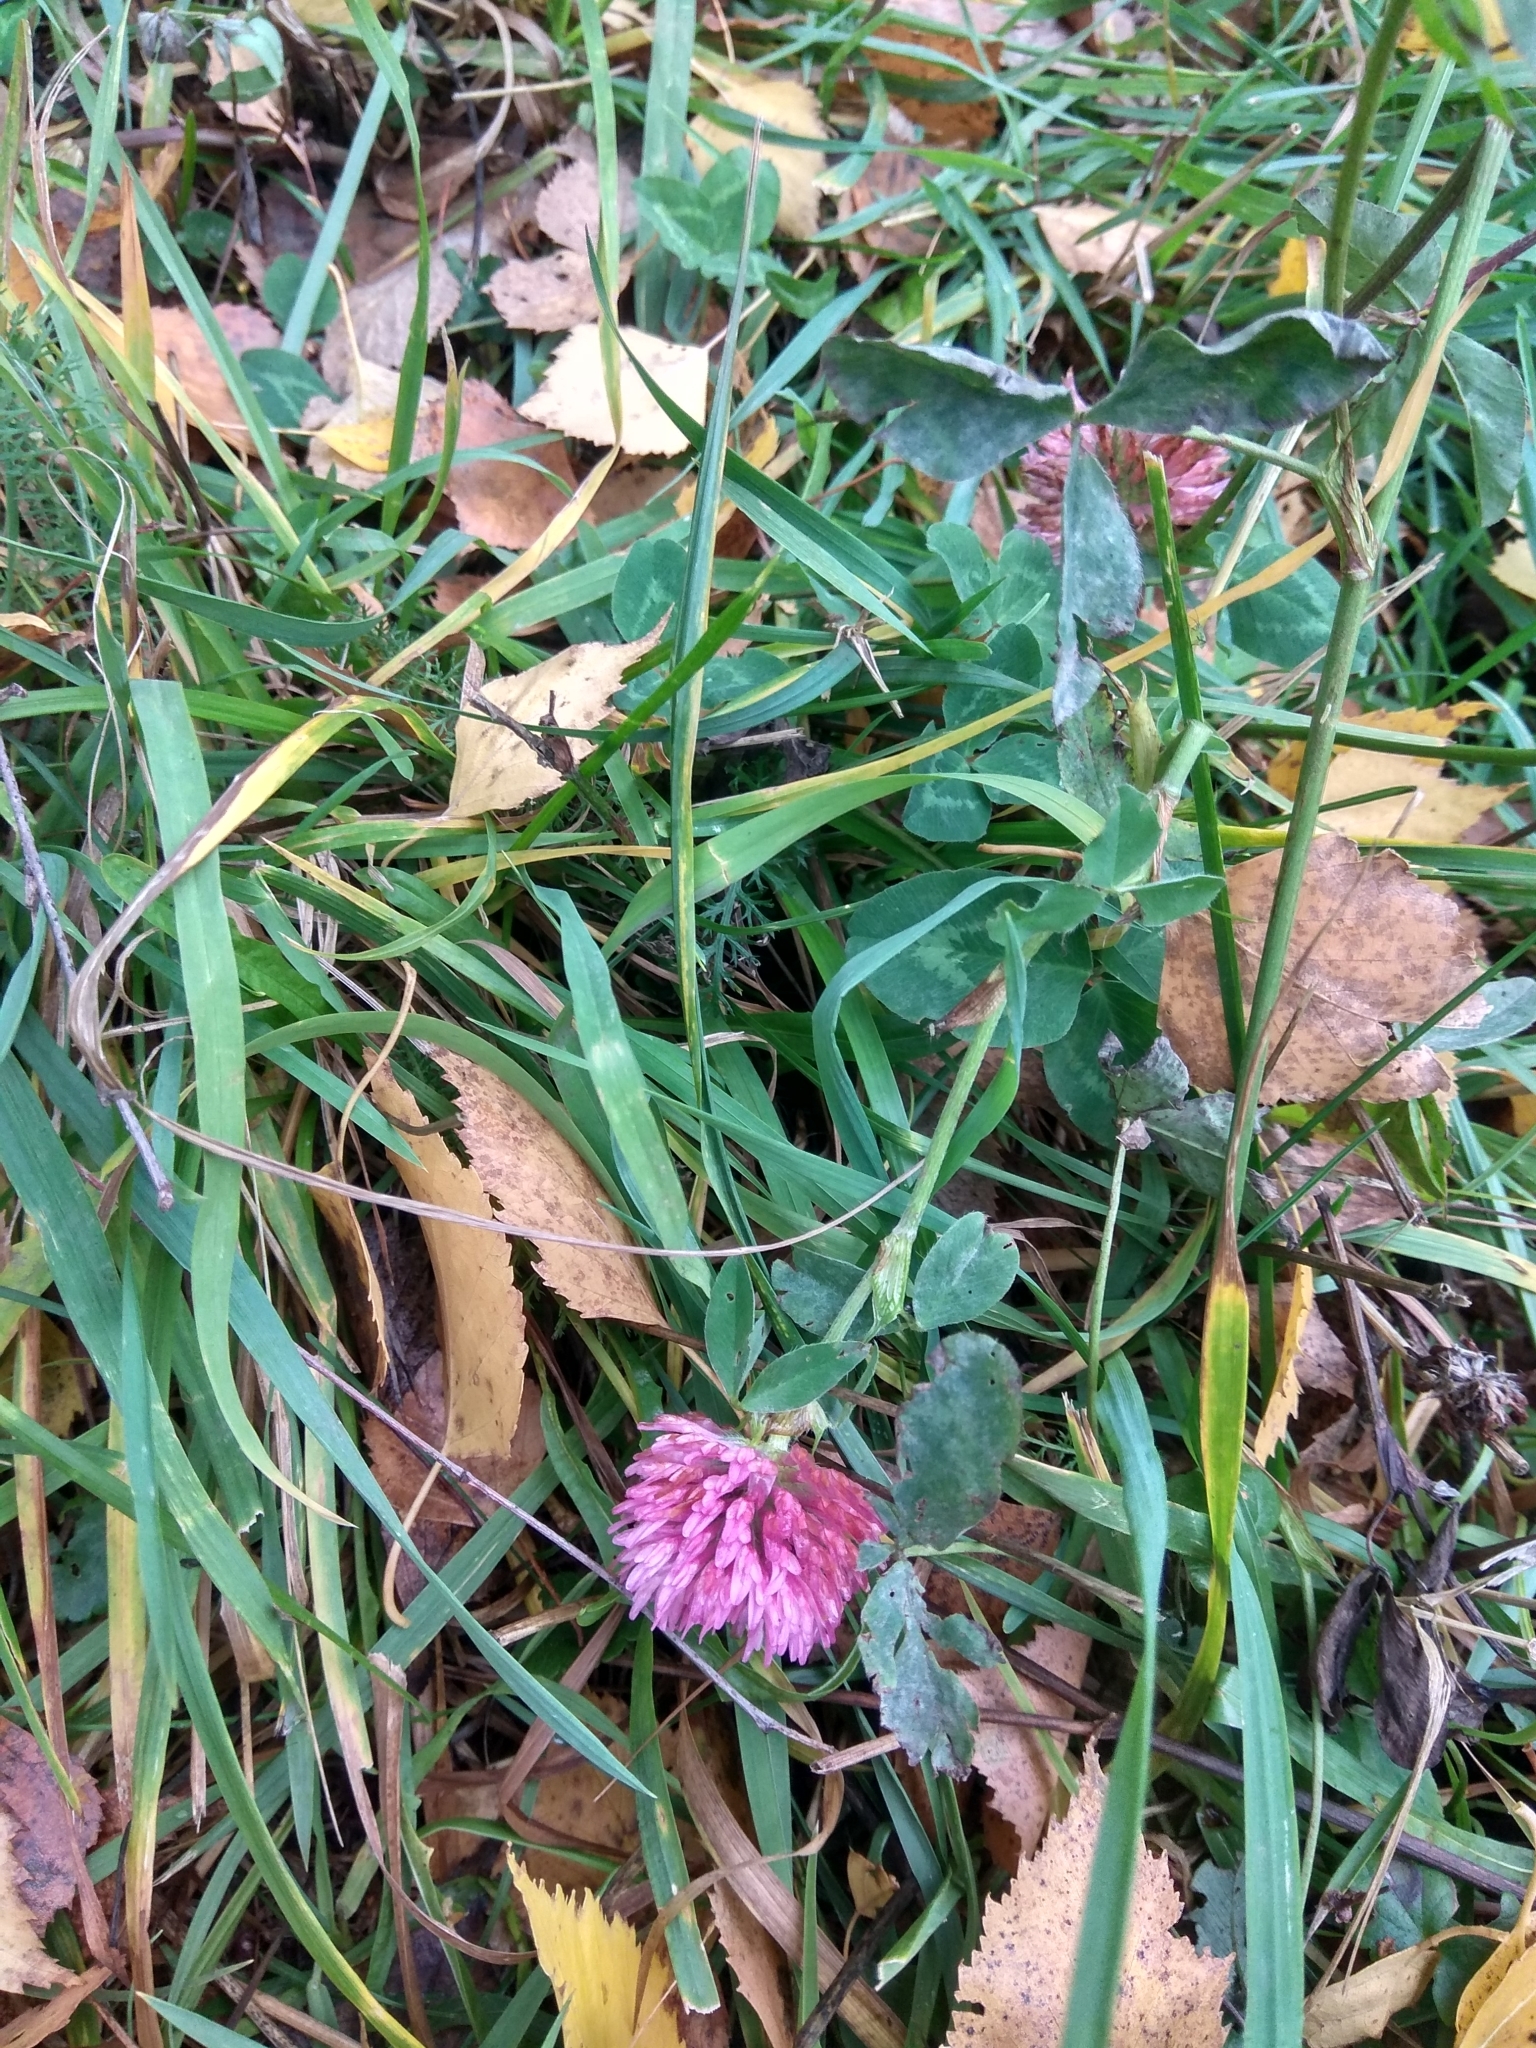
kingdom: Plantae
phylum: Tracheophyta
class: Magnoliopsida
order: Fabales
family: Fabaceae
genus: Trifolium
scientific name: Trifolium pratense
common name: Red clover
